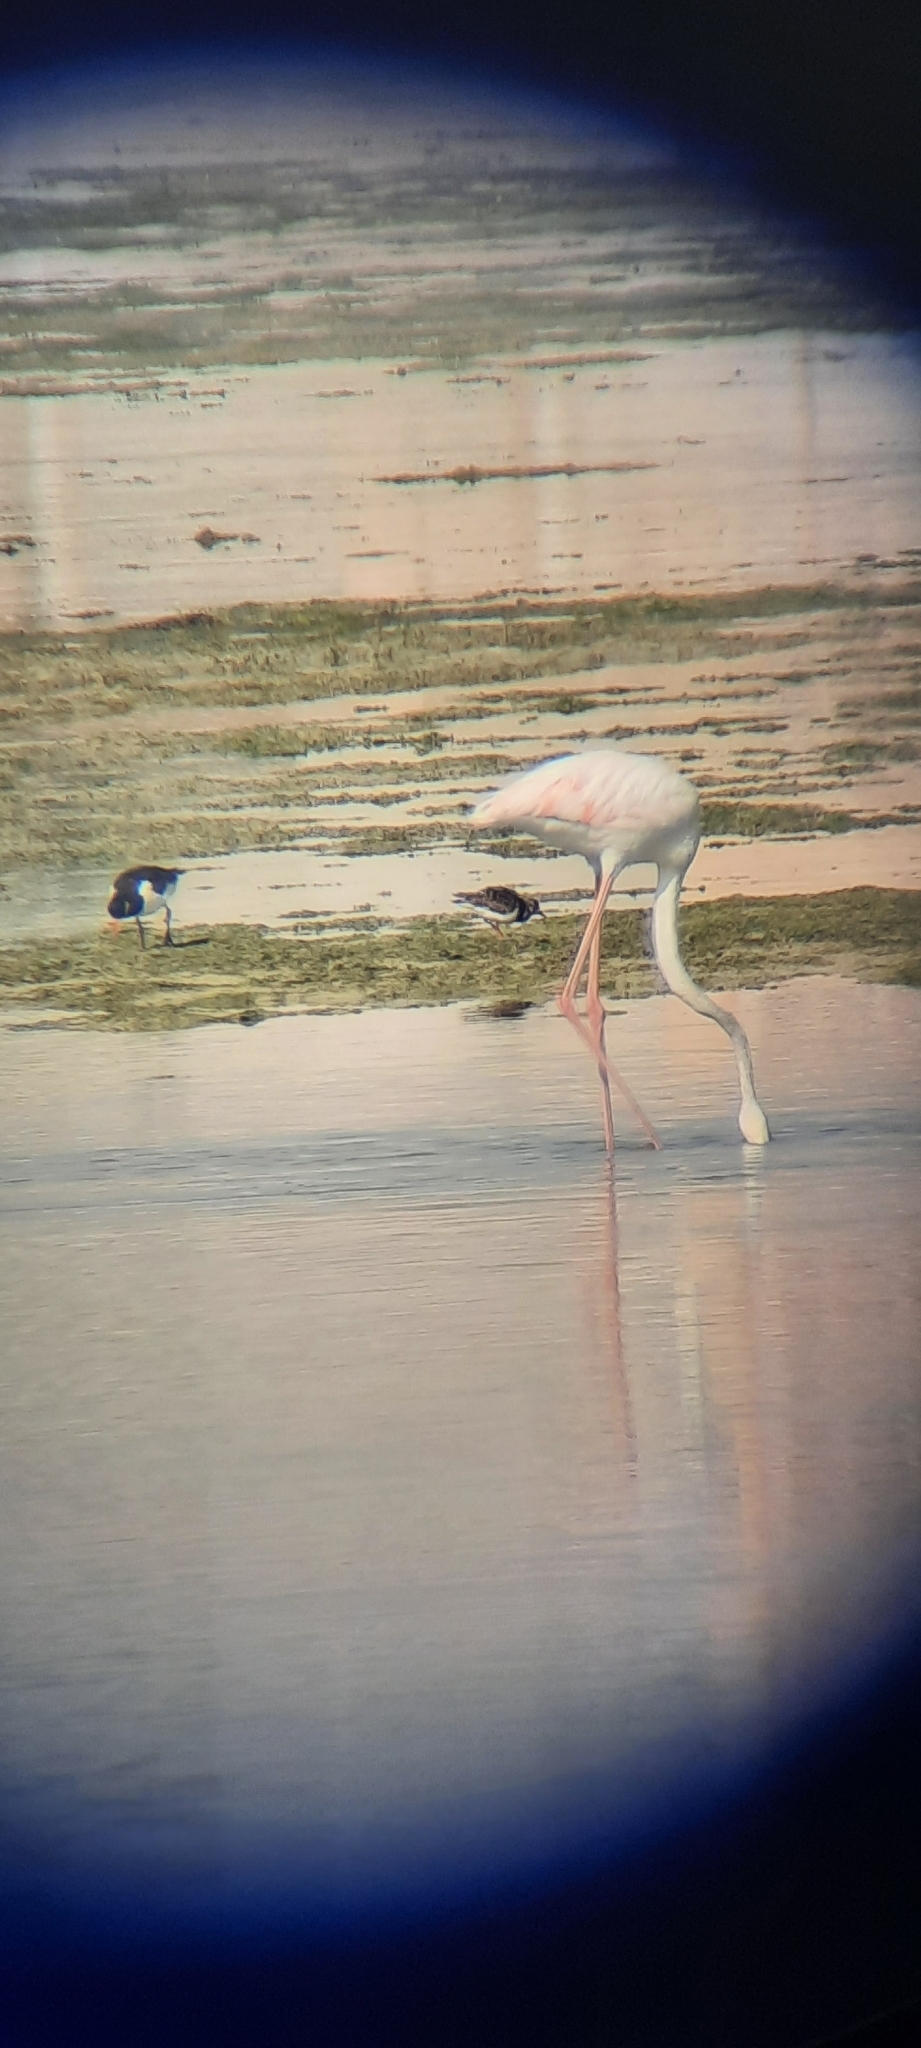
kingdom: Animalia
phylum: Chordata
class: Aves
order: Phoenicopteriformes
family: Phoenicopteridae
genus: Phoenicopterus
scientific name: Phoenicopterus roseus
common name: Greater flamingo
